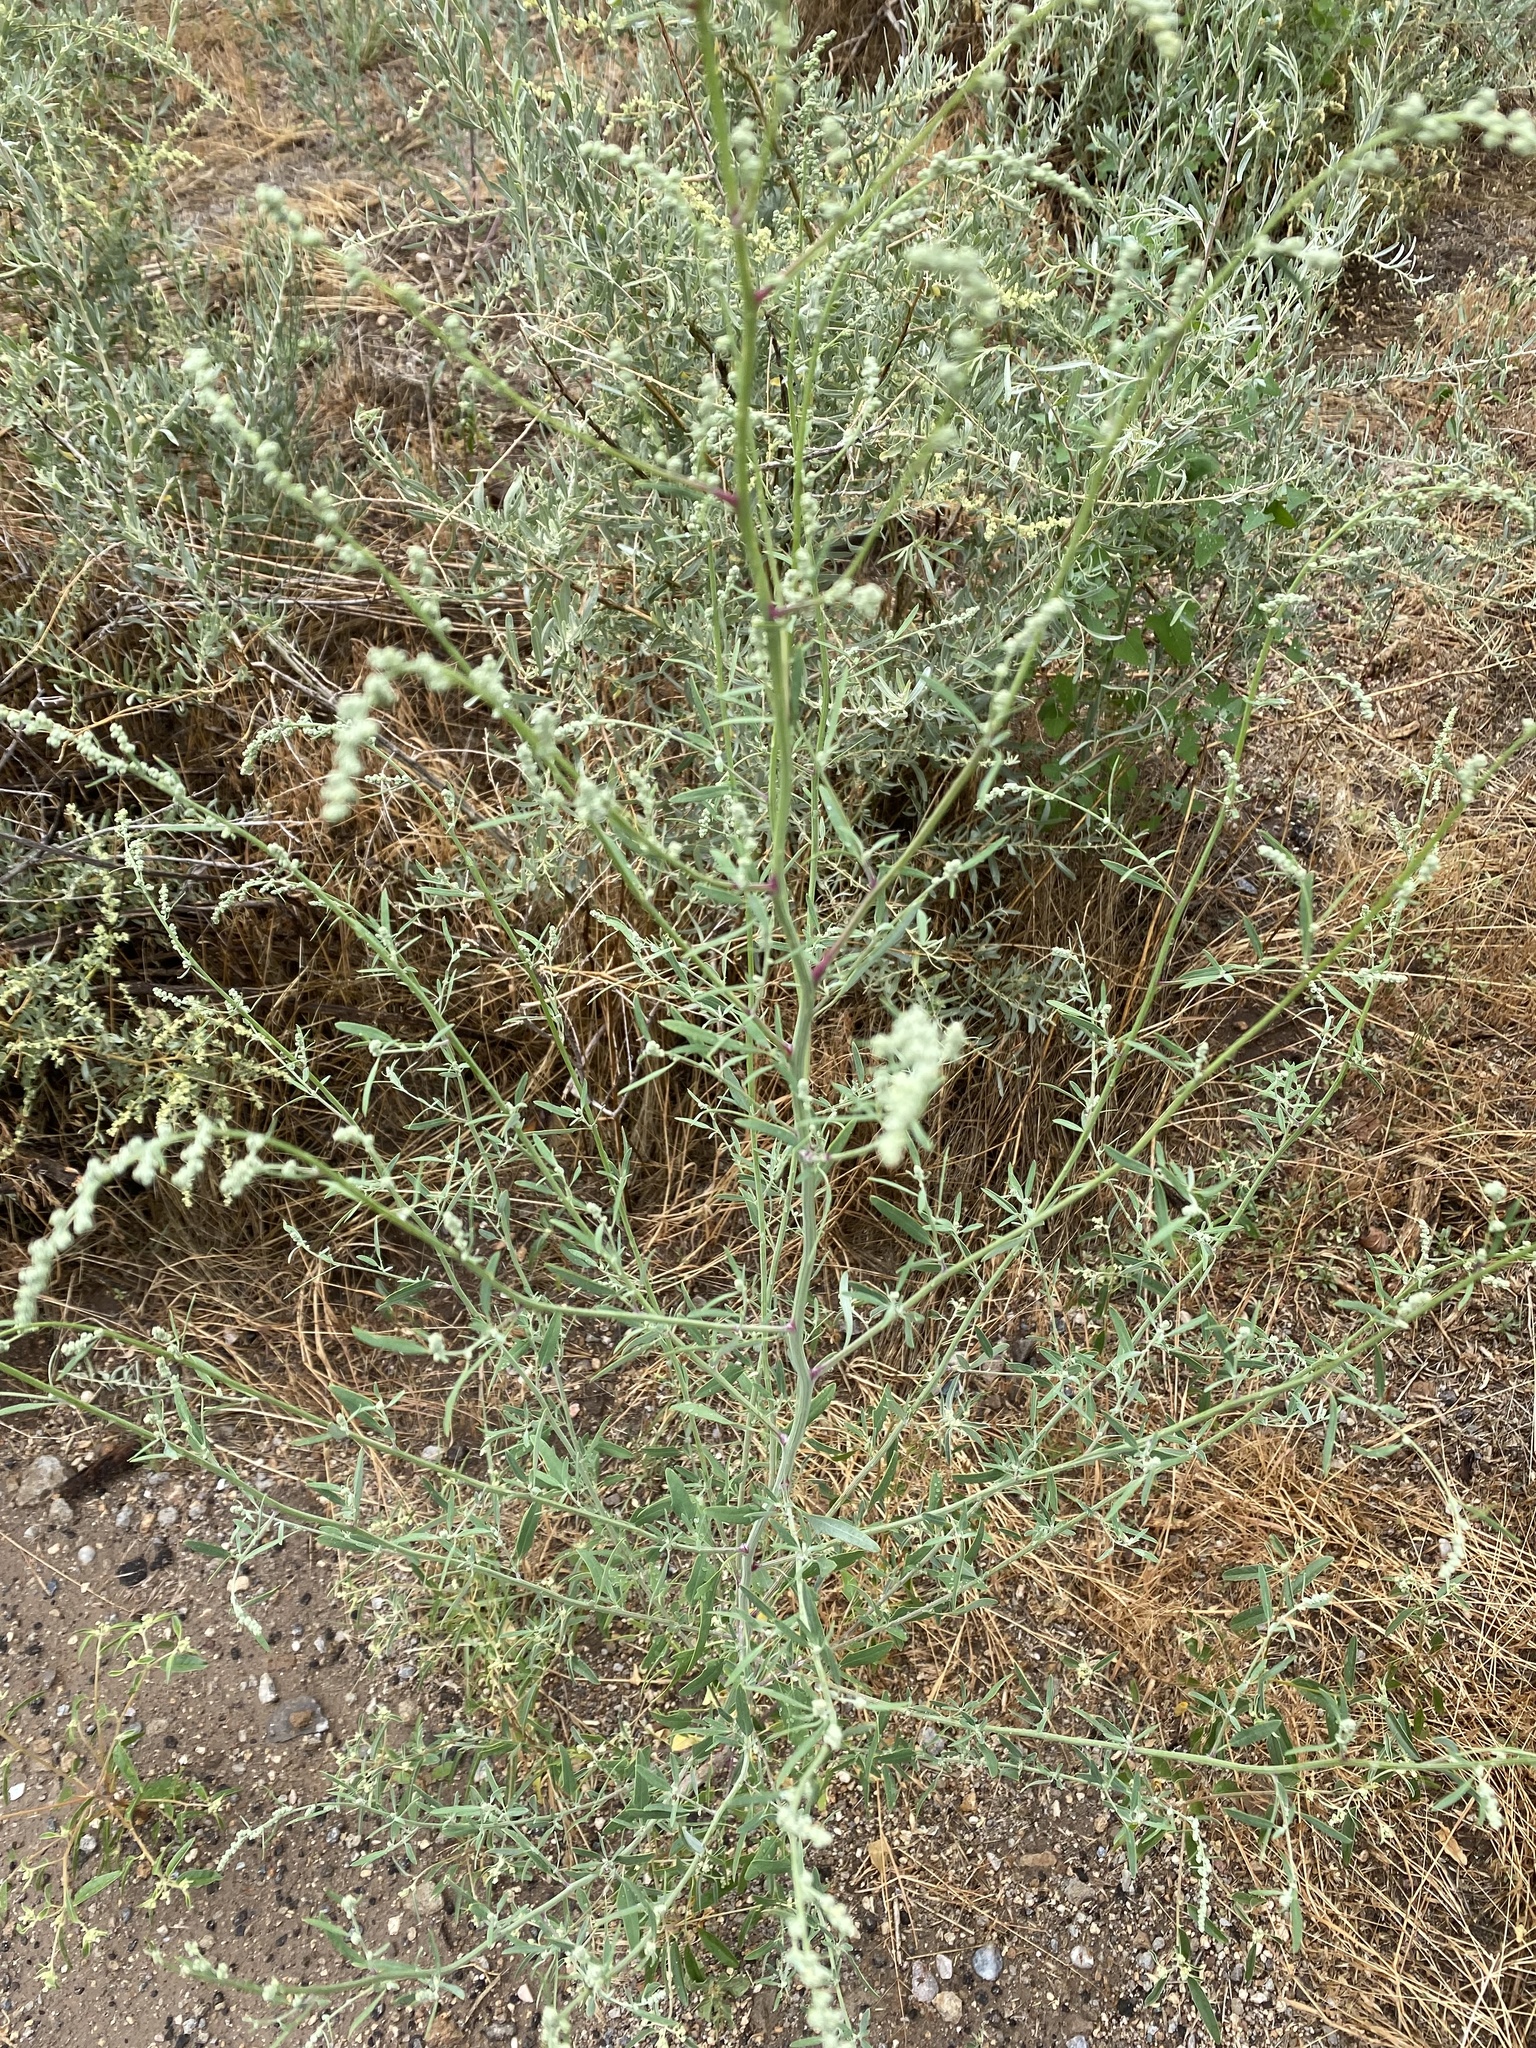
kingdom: Plantae
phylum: Tracheophyta
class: Magnoliopsida
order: Fabales
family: Fabaceae
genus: Melilotus
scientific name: Melilotus albus
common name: White melilot
